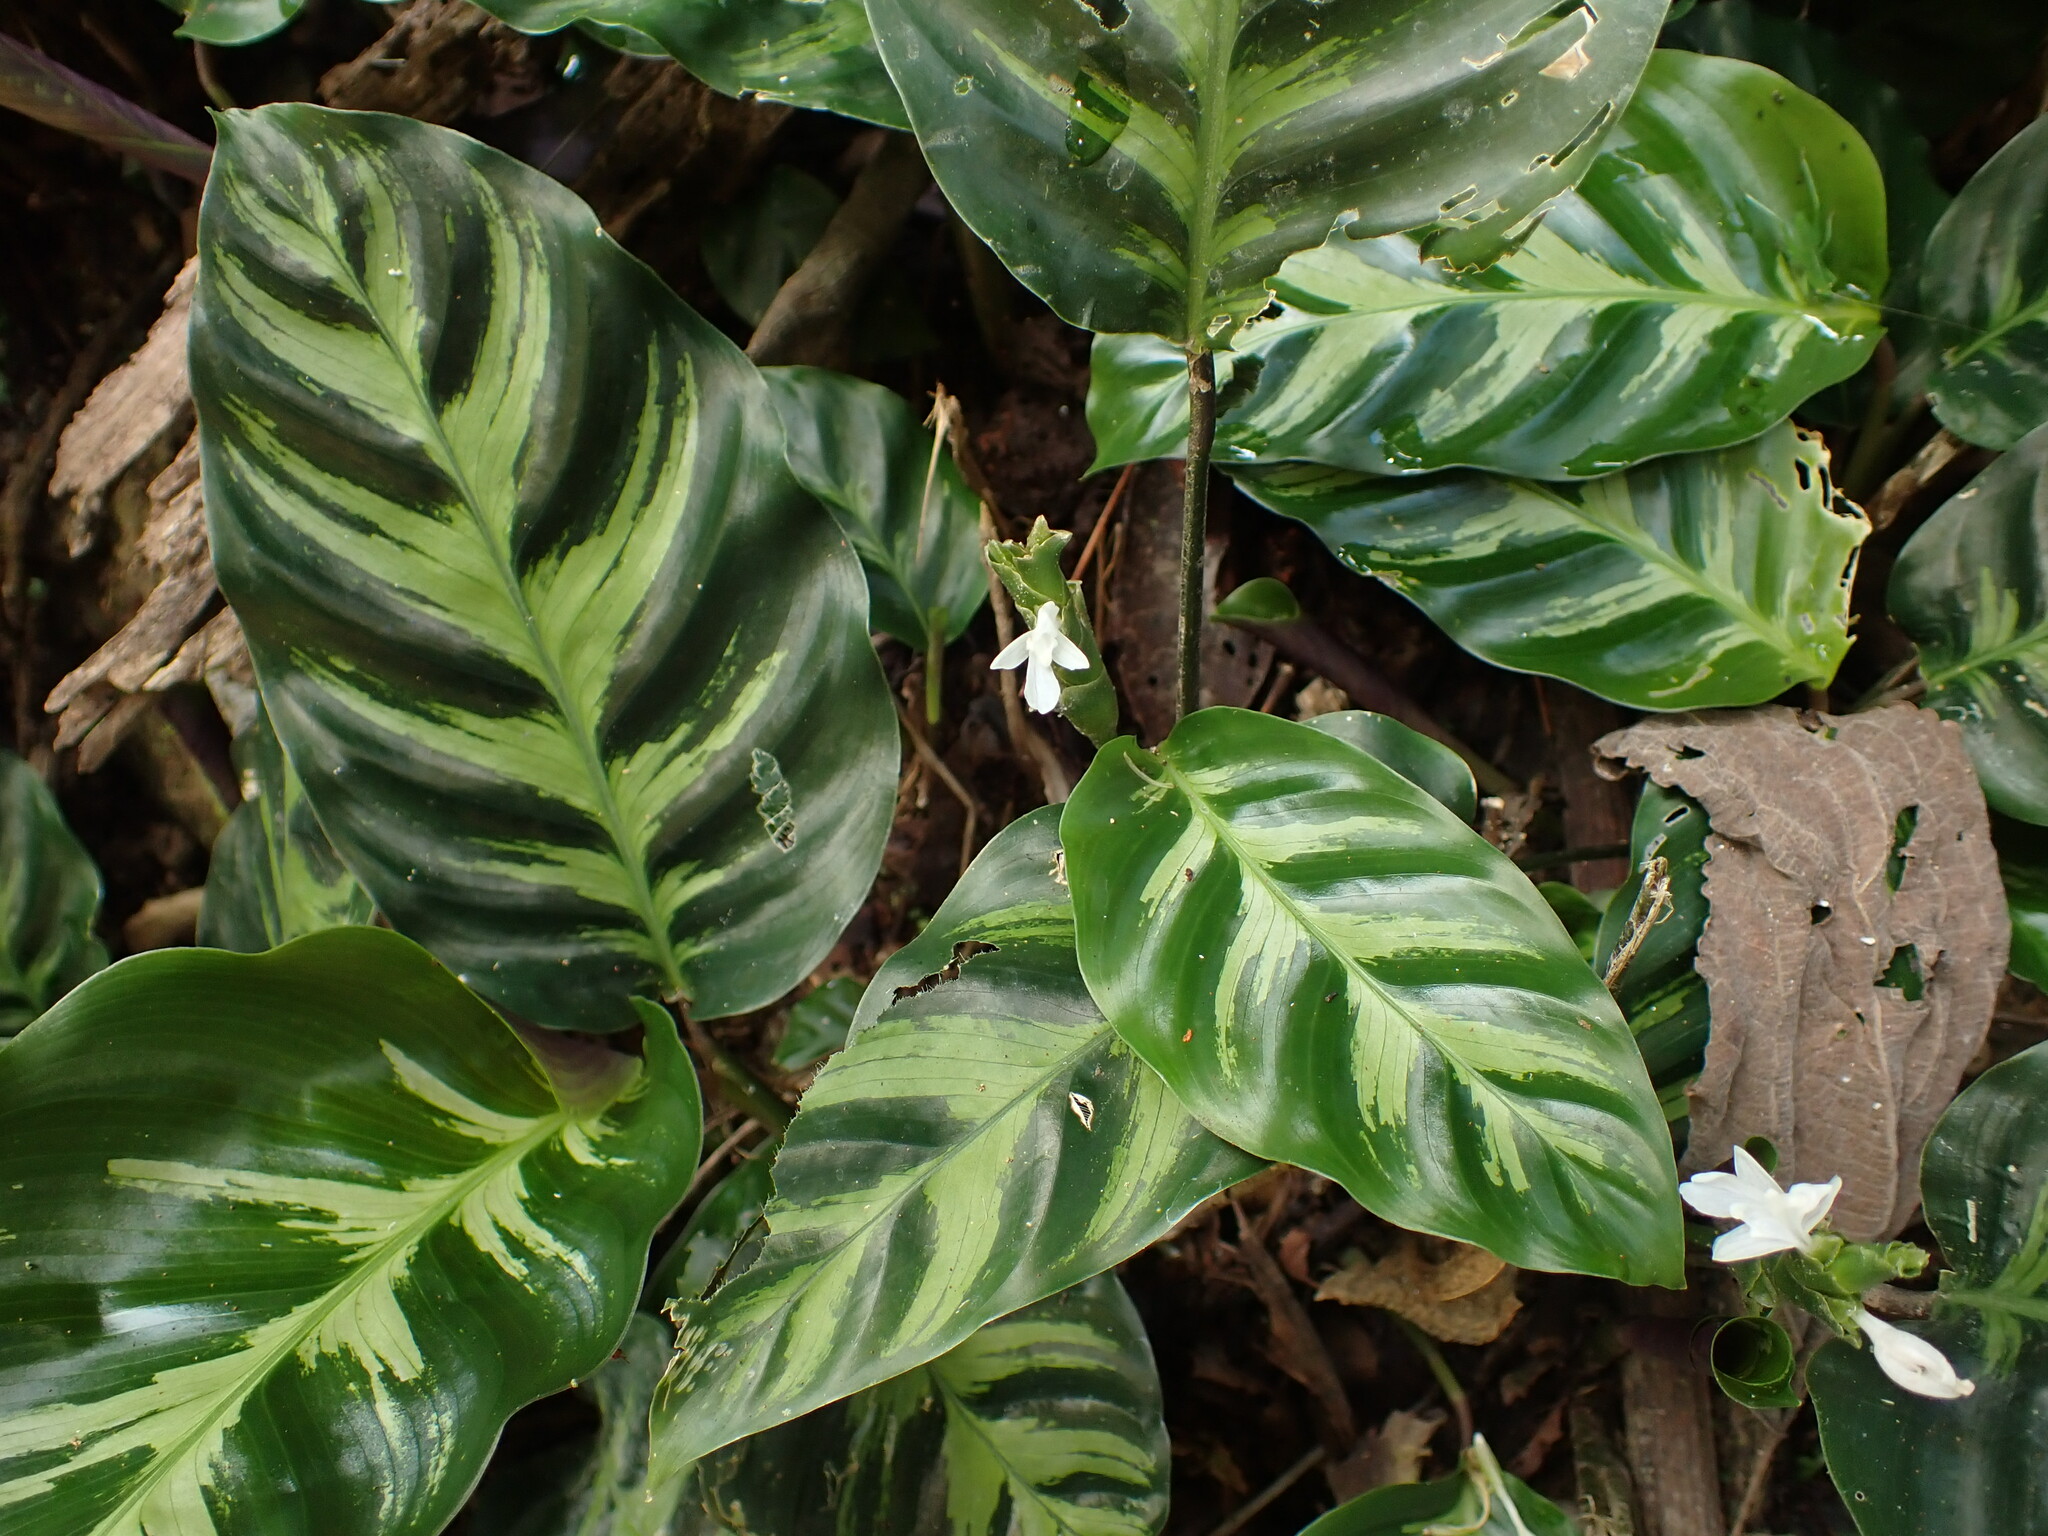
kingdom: Plantae
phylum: Tracheophyta
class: Liliopsida
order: Zingiberales
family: Marantaceae
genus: Goeppertia
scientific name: Goeppertia lietzei
